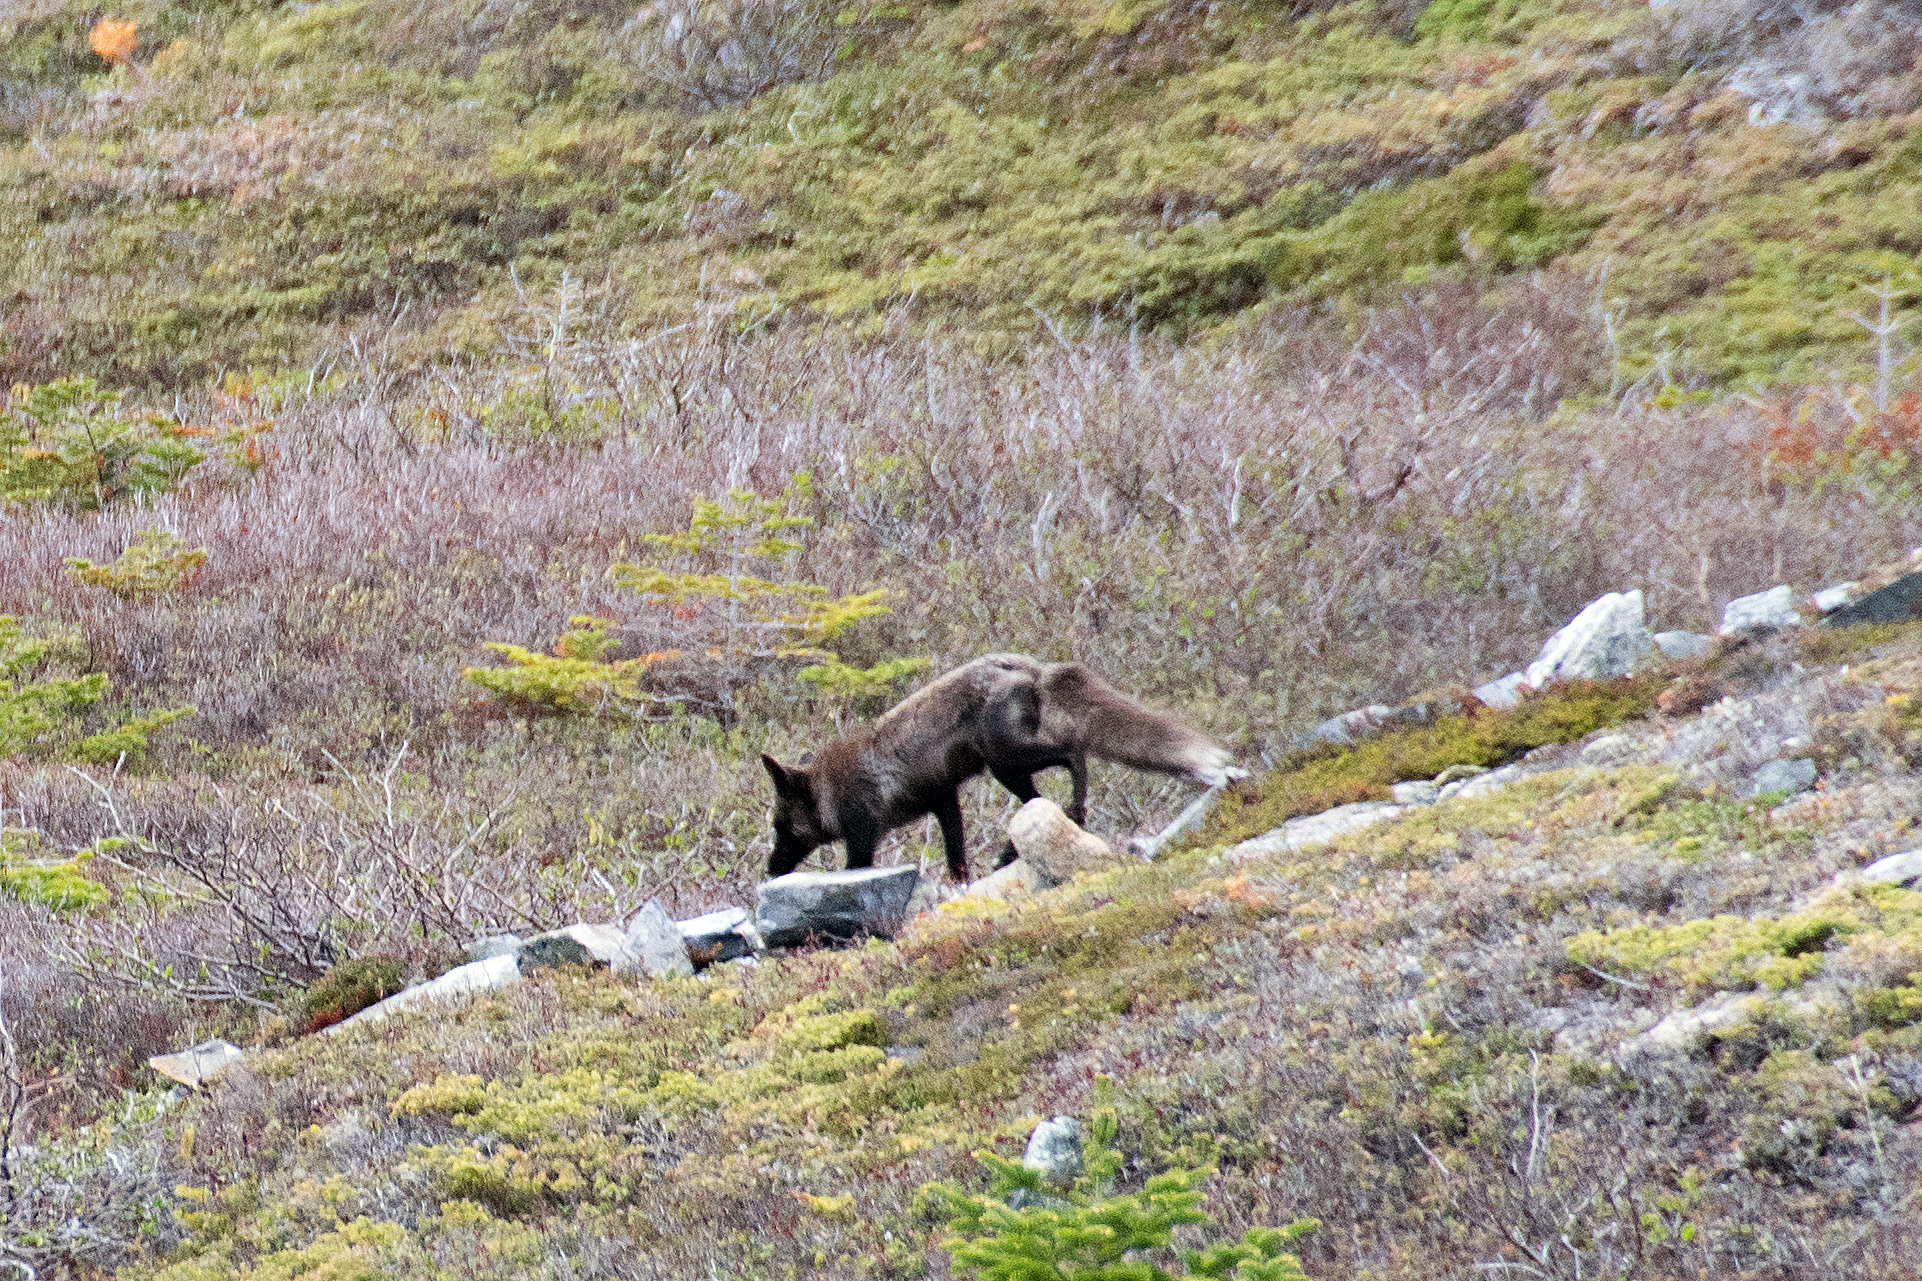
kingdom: Animalia
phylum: Chordata
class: Mammalia
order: Carnivora
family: Canidae
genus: Vulpes
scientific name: Vulpes vulpes
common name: Red fox
